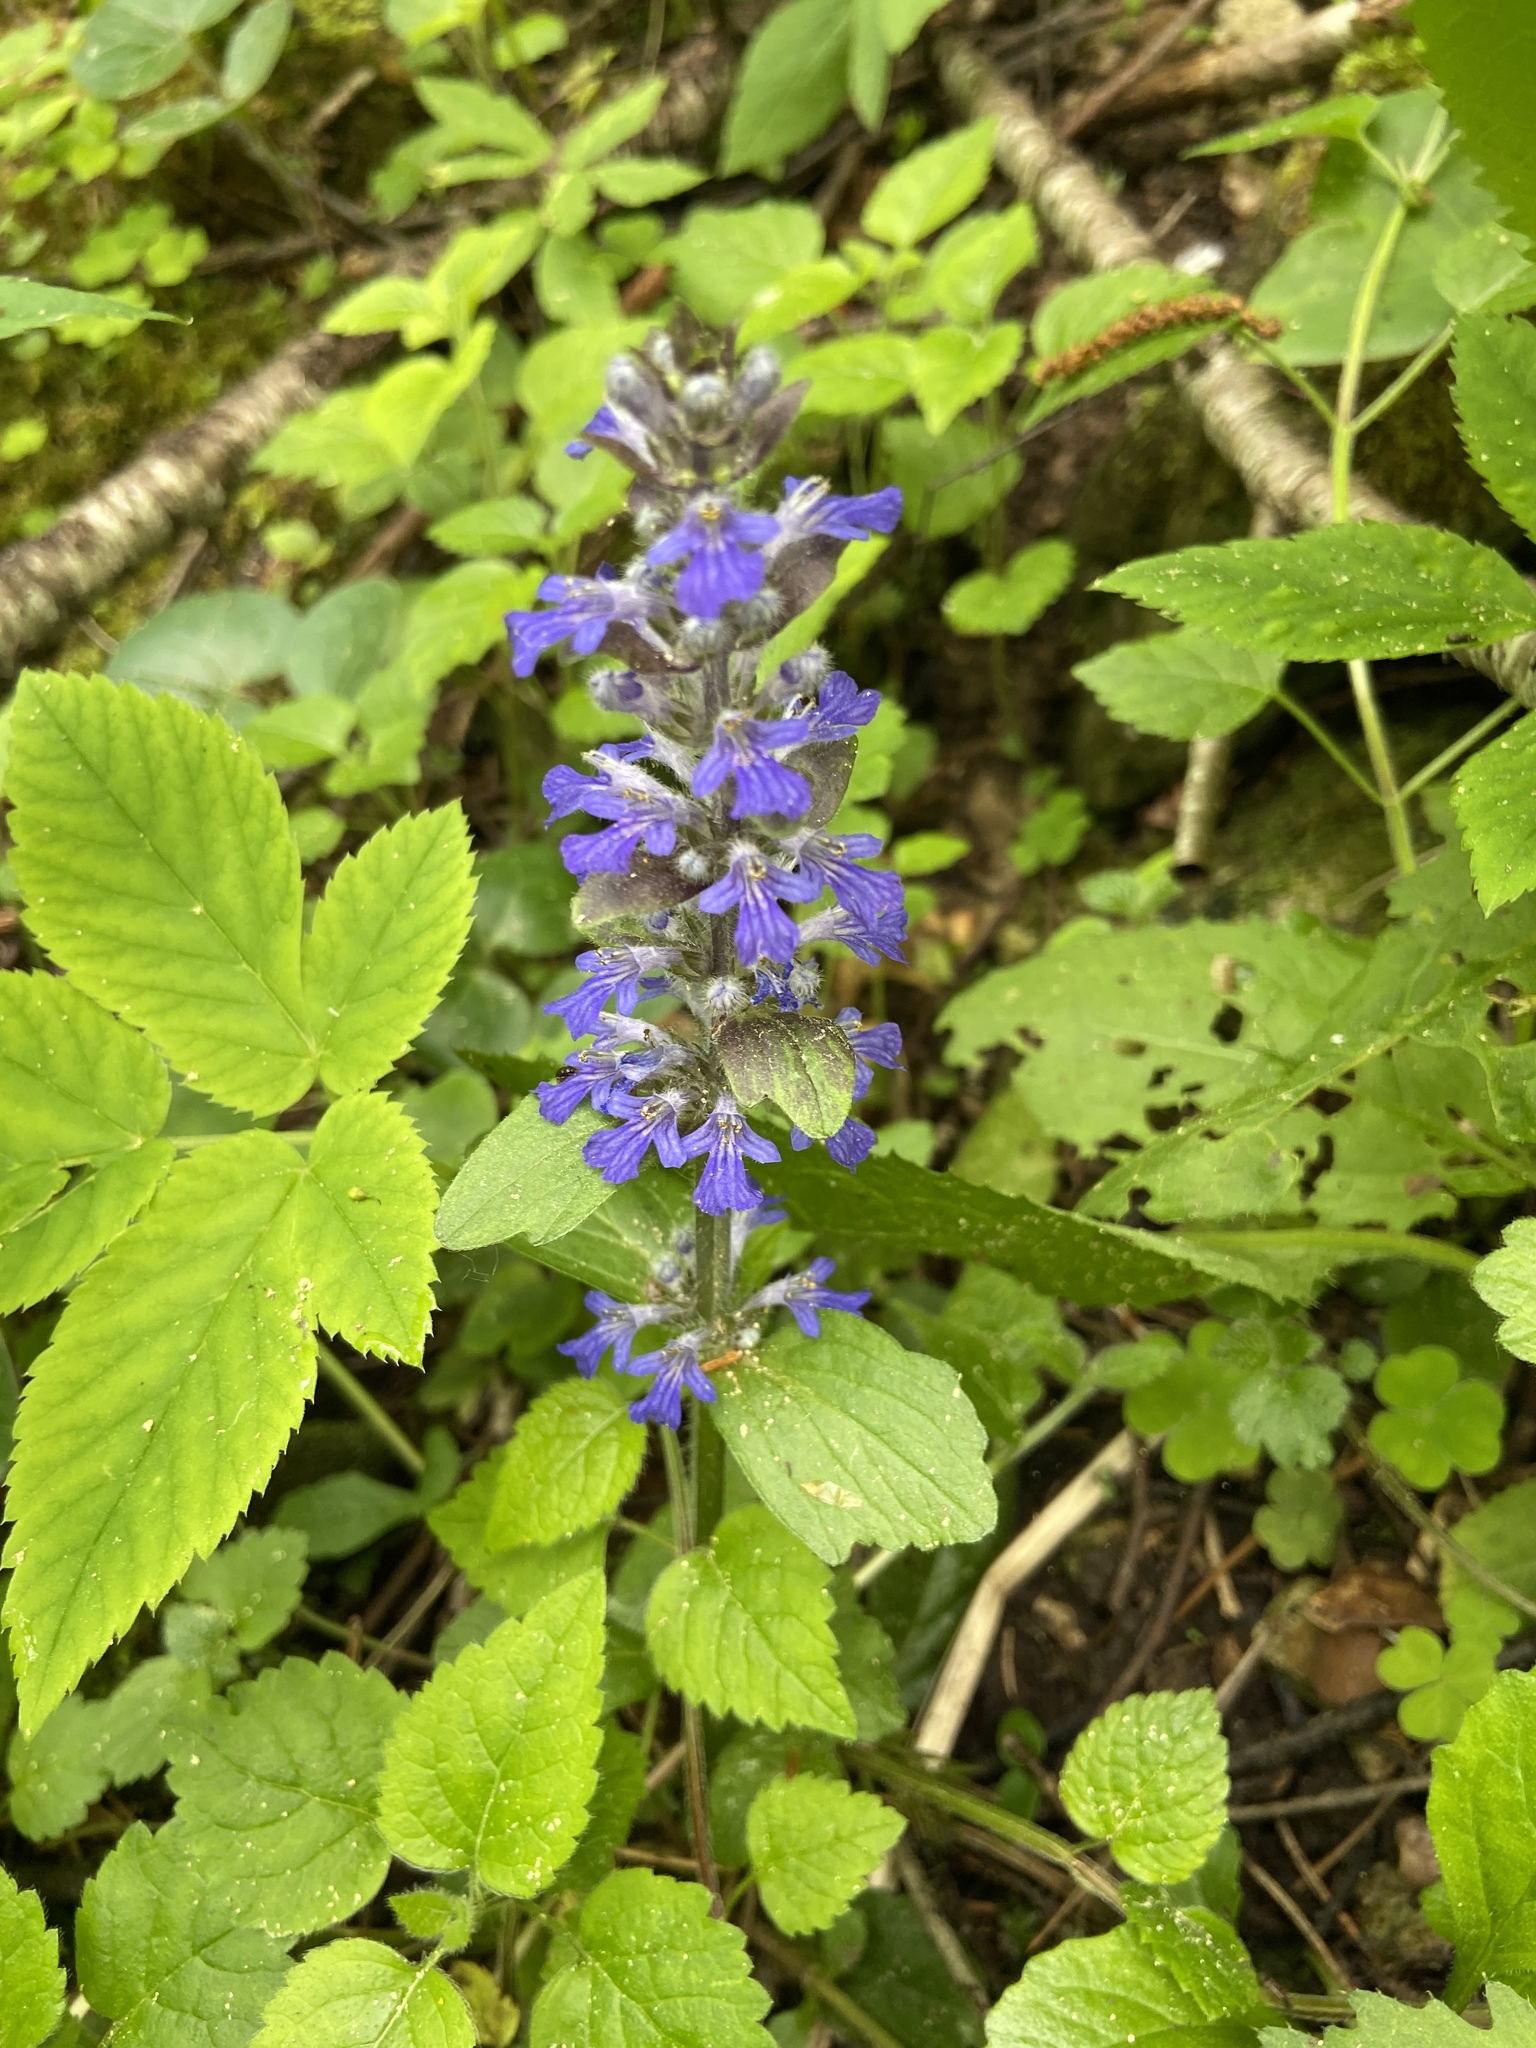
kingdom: Plantae
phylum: Tracheophyta
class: Magnoliopsida
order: Lamiales
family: Lamiaceae
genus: Ajuga
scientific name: Ajuga reptans
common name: Bugle
